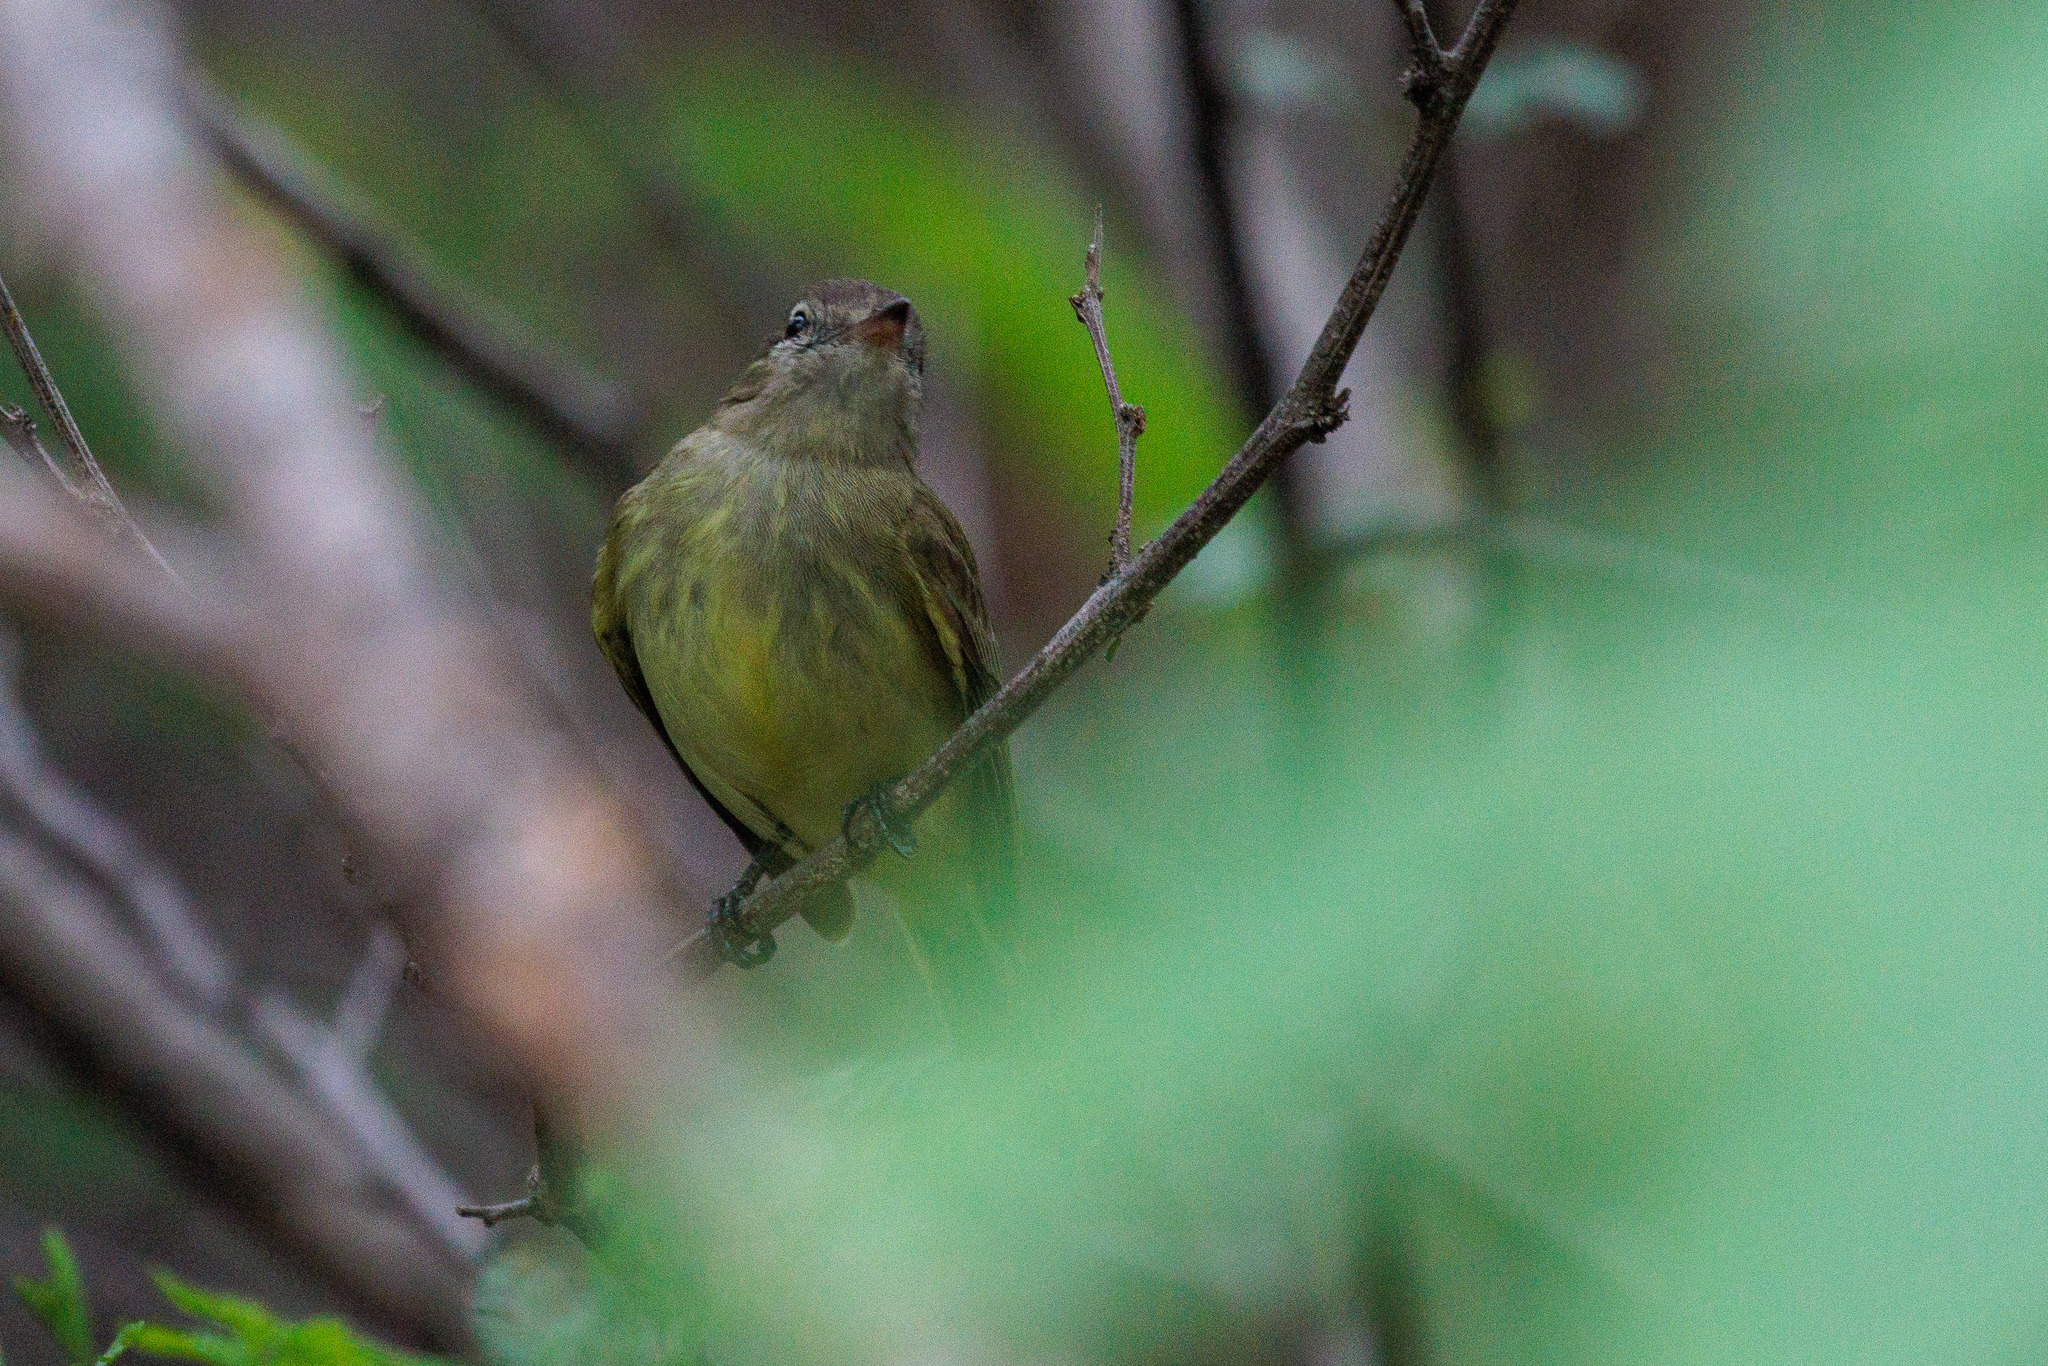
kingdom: Animalia
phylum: Chordata
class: Aves
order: Passeriformes
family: Tyrannidae
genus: Myiopagis
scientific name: Myiopagis viridicata
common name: Greenish elaenia
